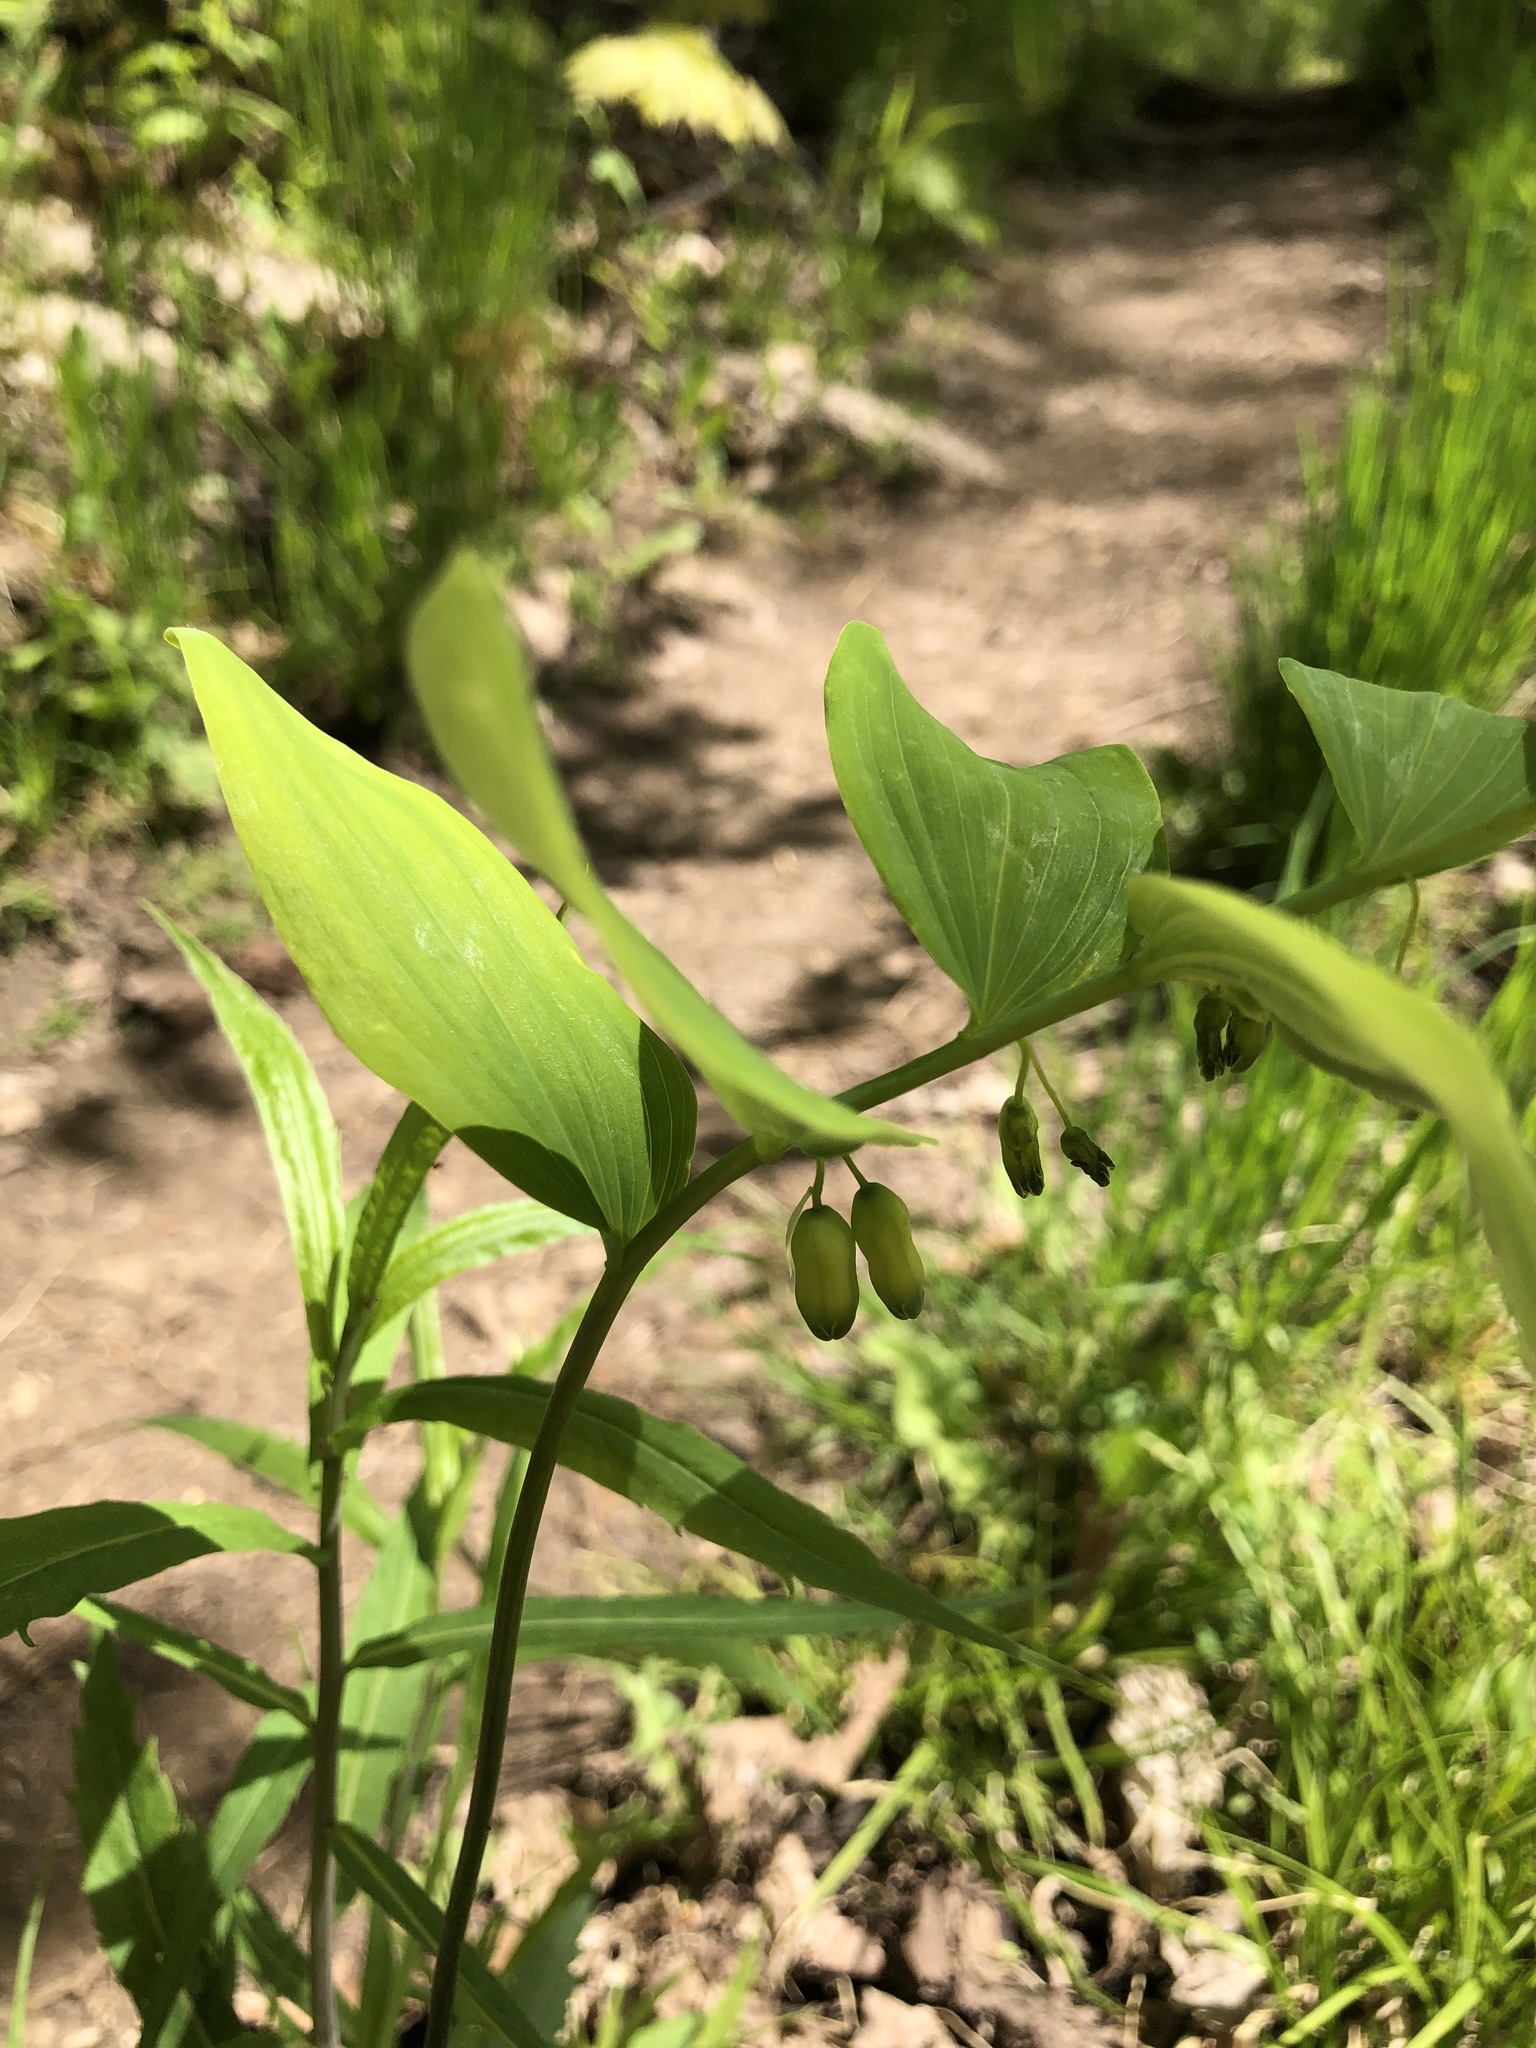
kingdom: Plantae
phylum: Tracheophyta
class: Liliopsida
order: Asparagales
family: Asparagaceae
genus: Polygonatum
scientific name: Polygonatum pubescens
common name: Downy solomon's seal
